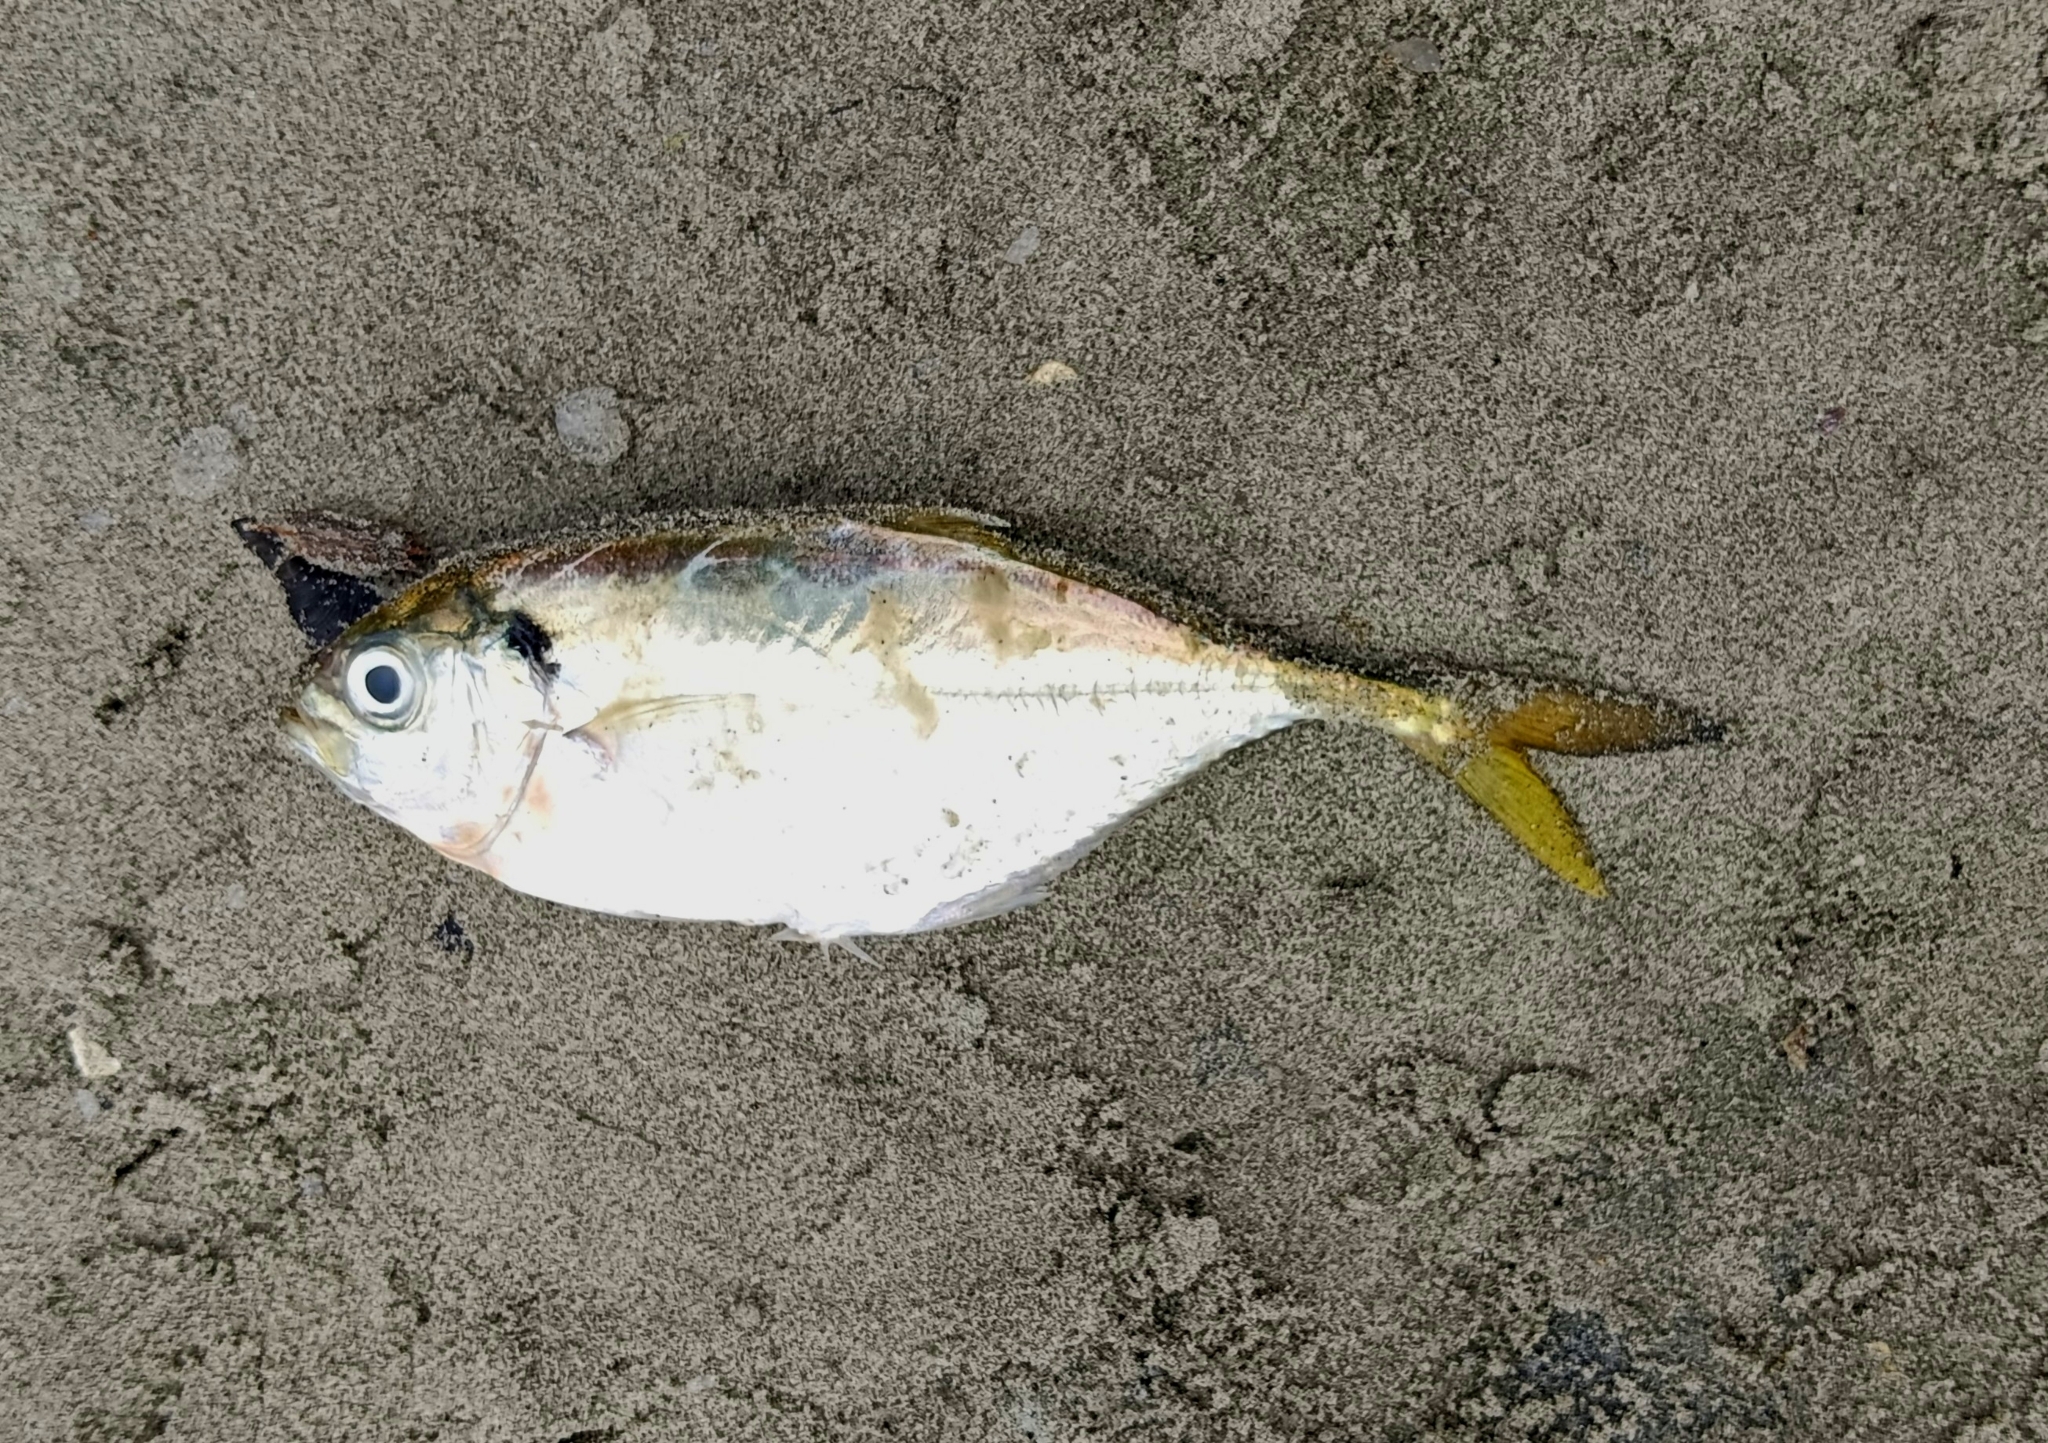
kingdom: Animalia
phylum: Chordata
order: Perciformes
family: Carangidae
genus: Alepes
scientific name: Alepes kleinii
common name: Banded scad
